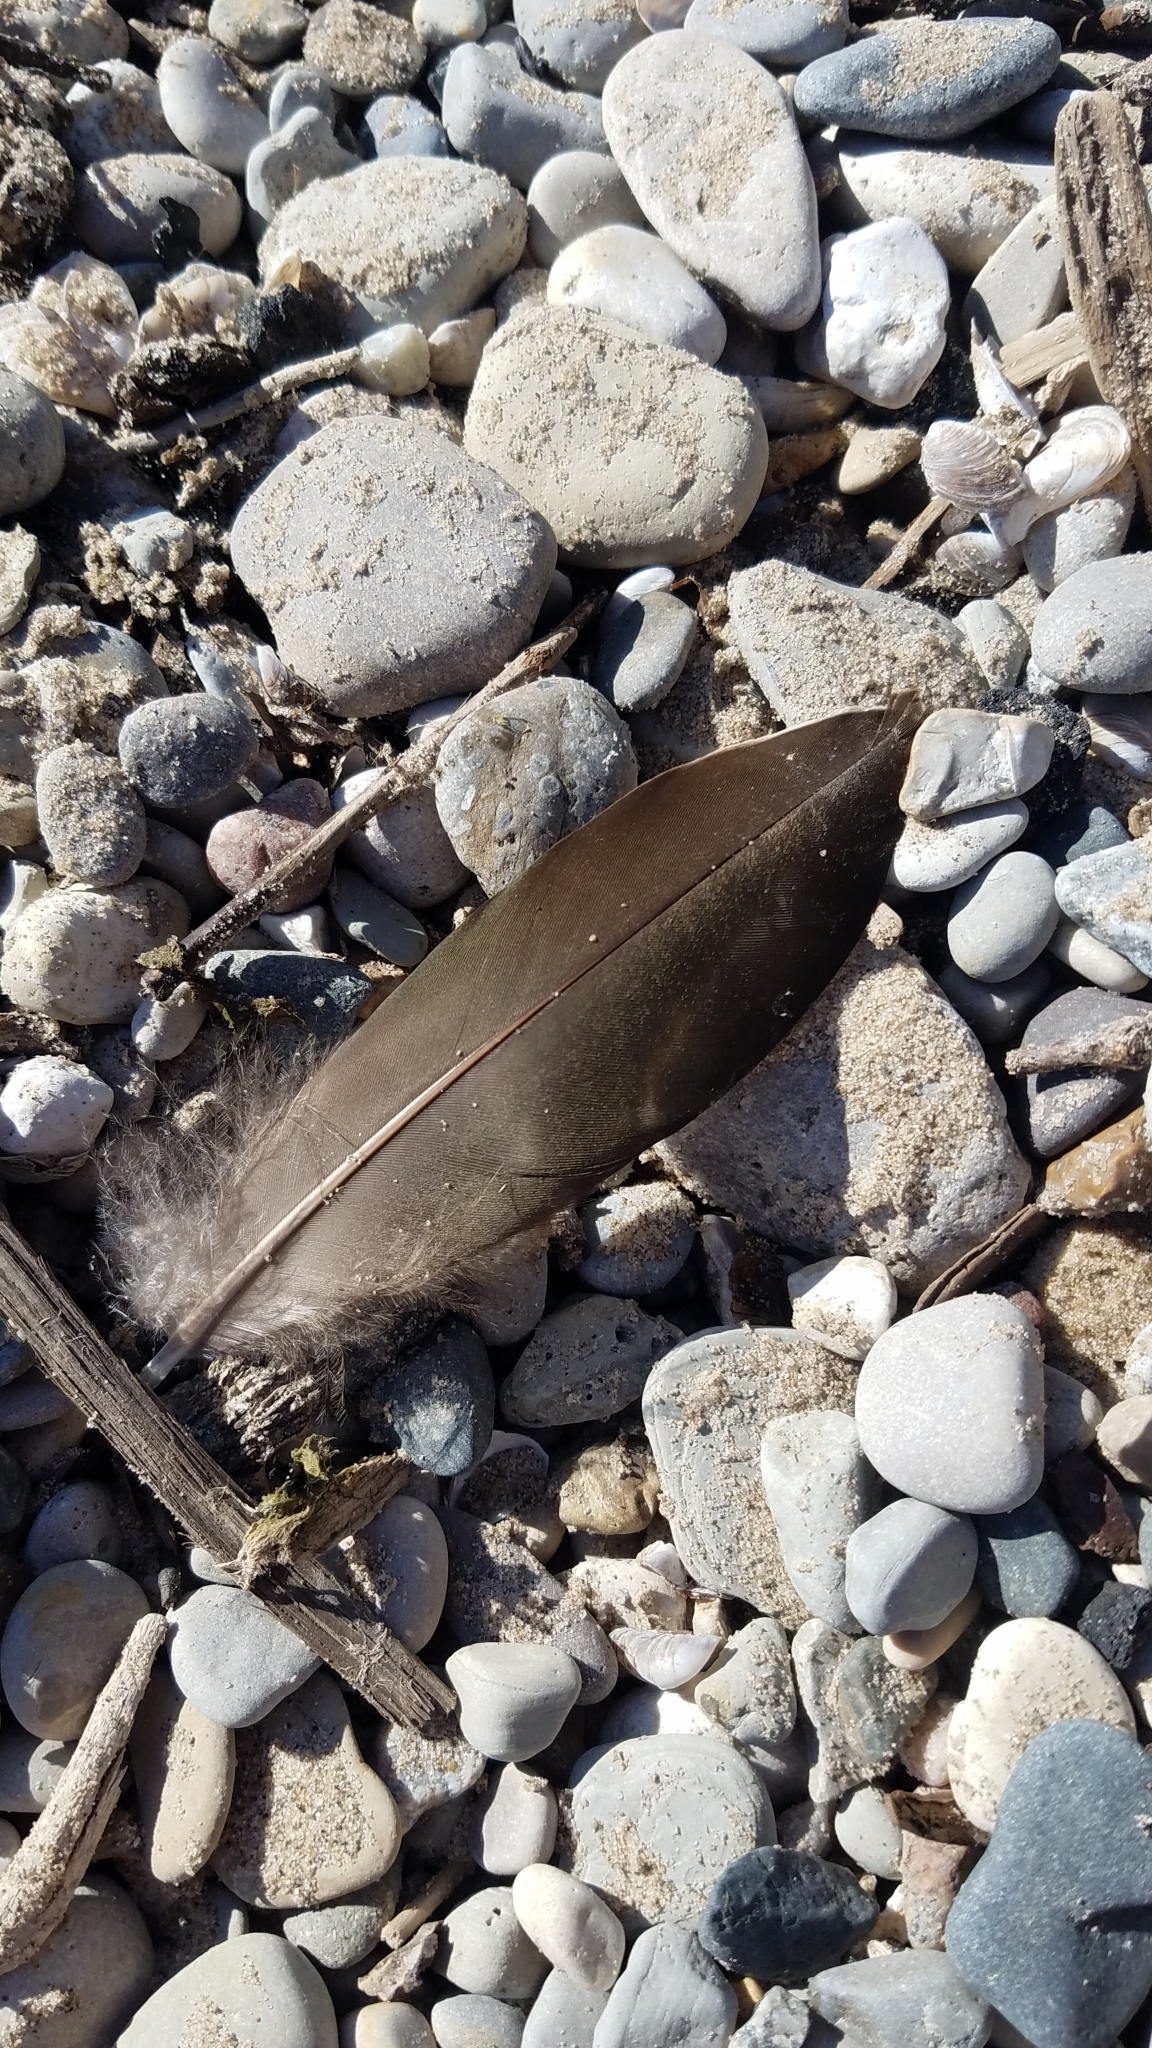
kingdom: Animalia
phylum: Chordata
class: Aves
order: Anseriformes
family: Anatidae
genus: Anas
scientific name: Anas platyrhynchos
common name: Mallard
